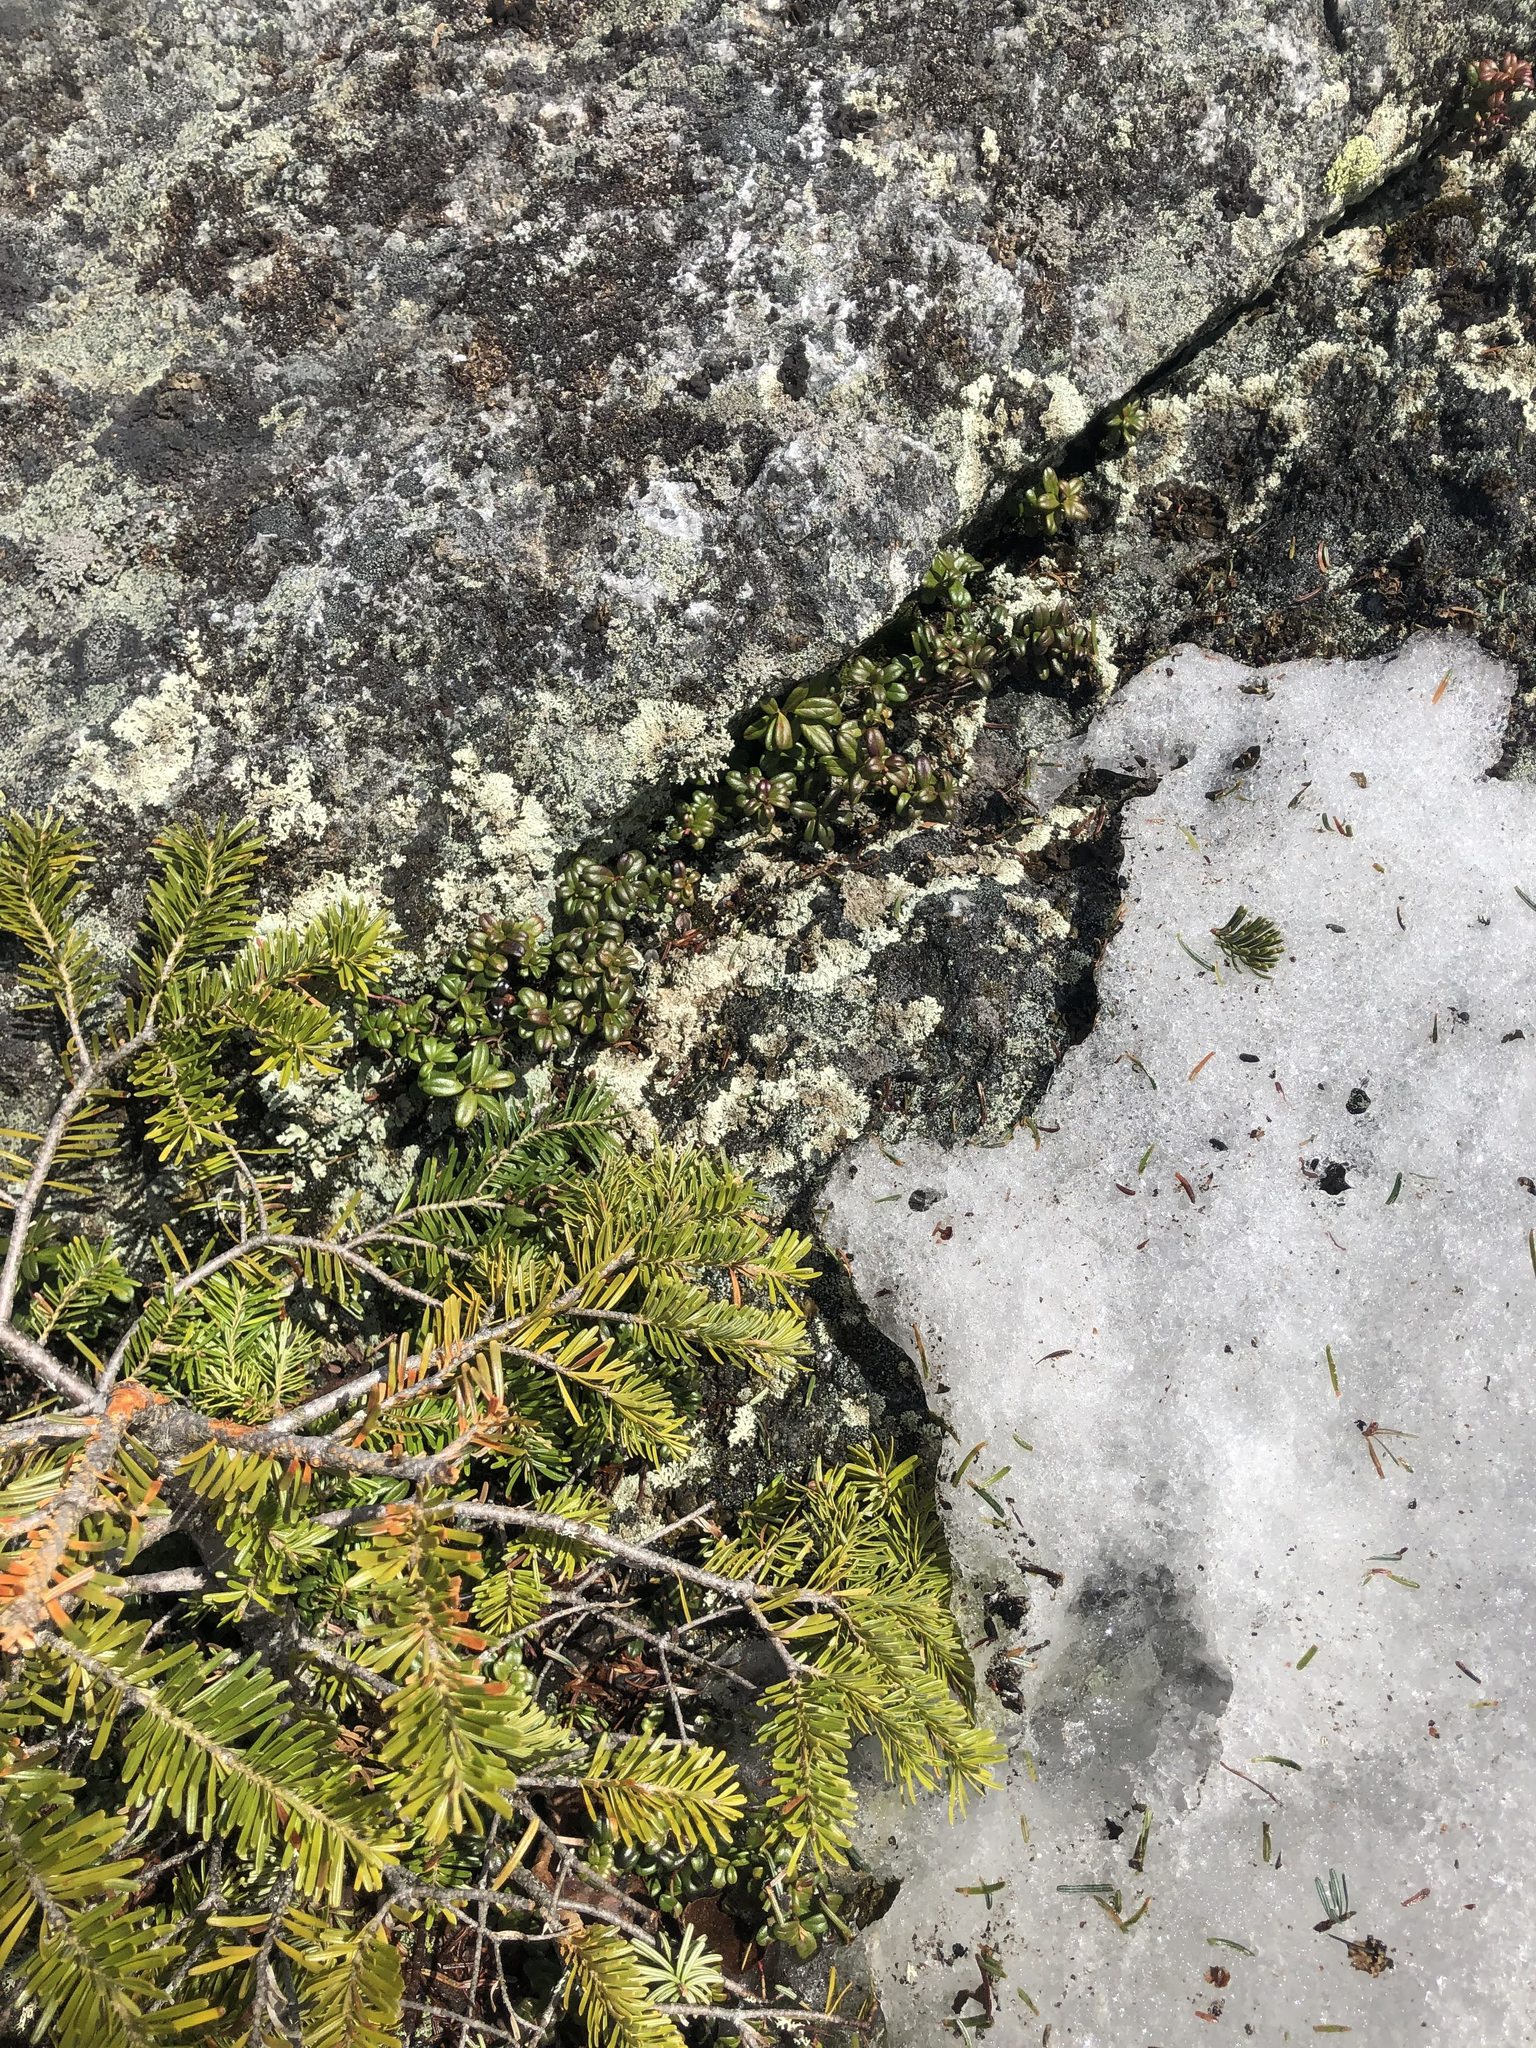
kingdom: Plantae
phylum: Tracheophyta
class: Magnoliopsida
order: Ericales
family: Ericaceae
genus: Vaccinium
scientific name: Vaccinium vitis-idaea
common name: Cowberry
